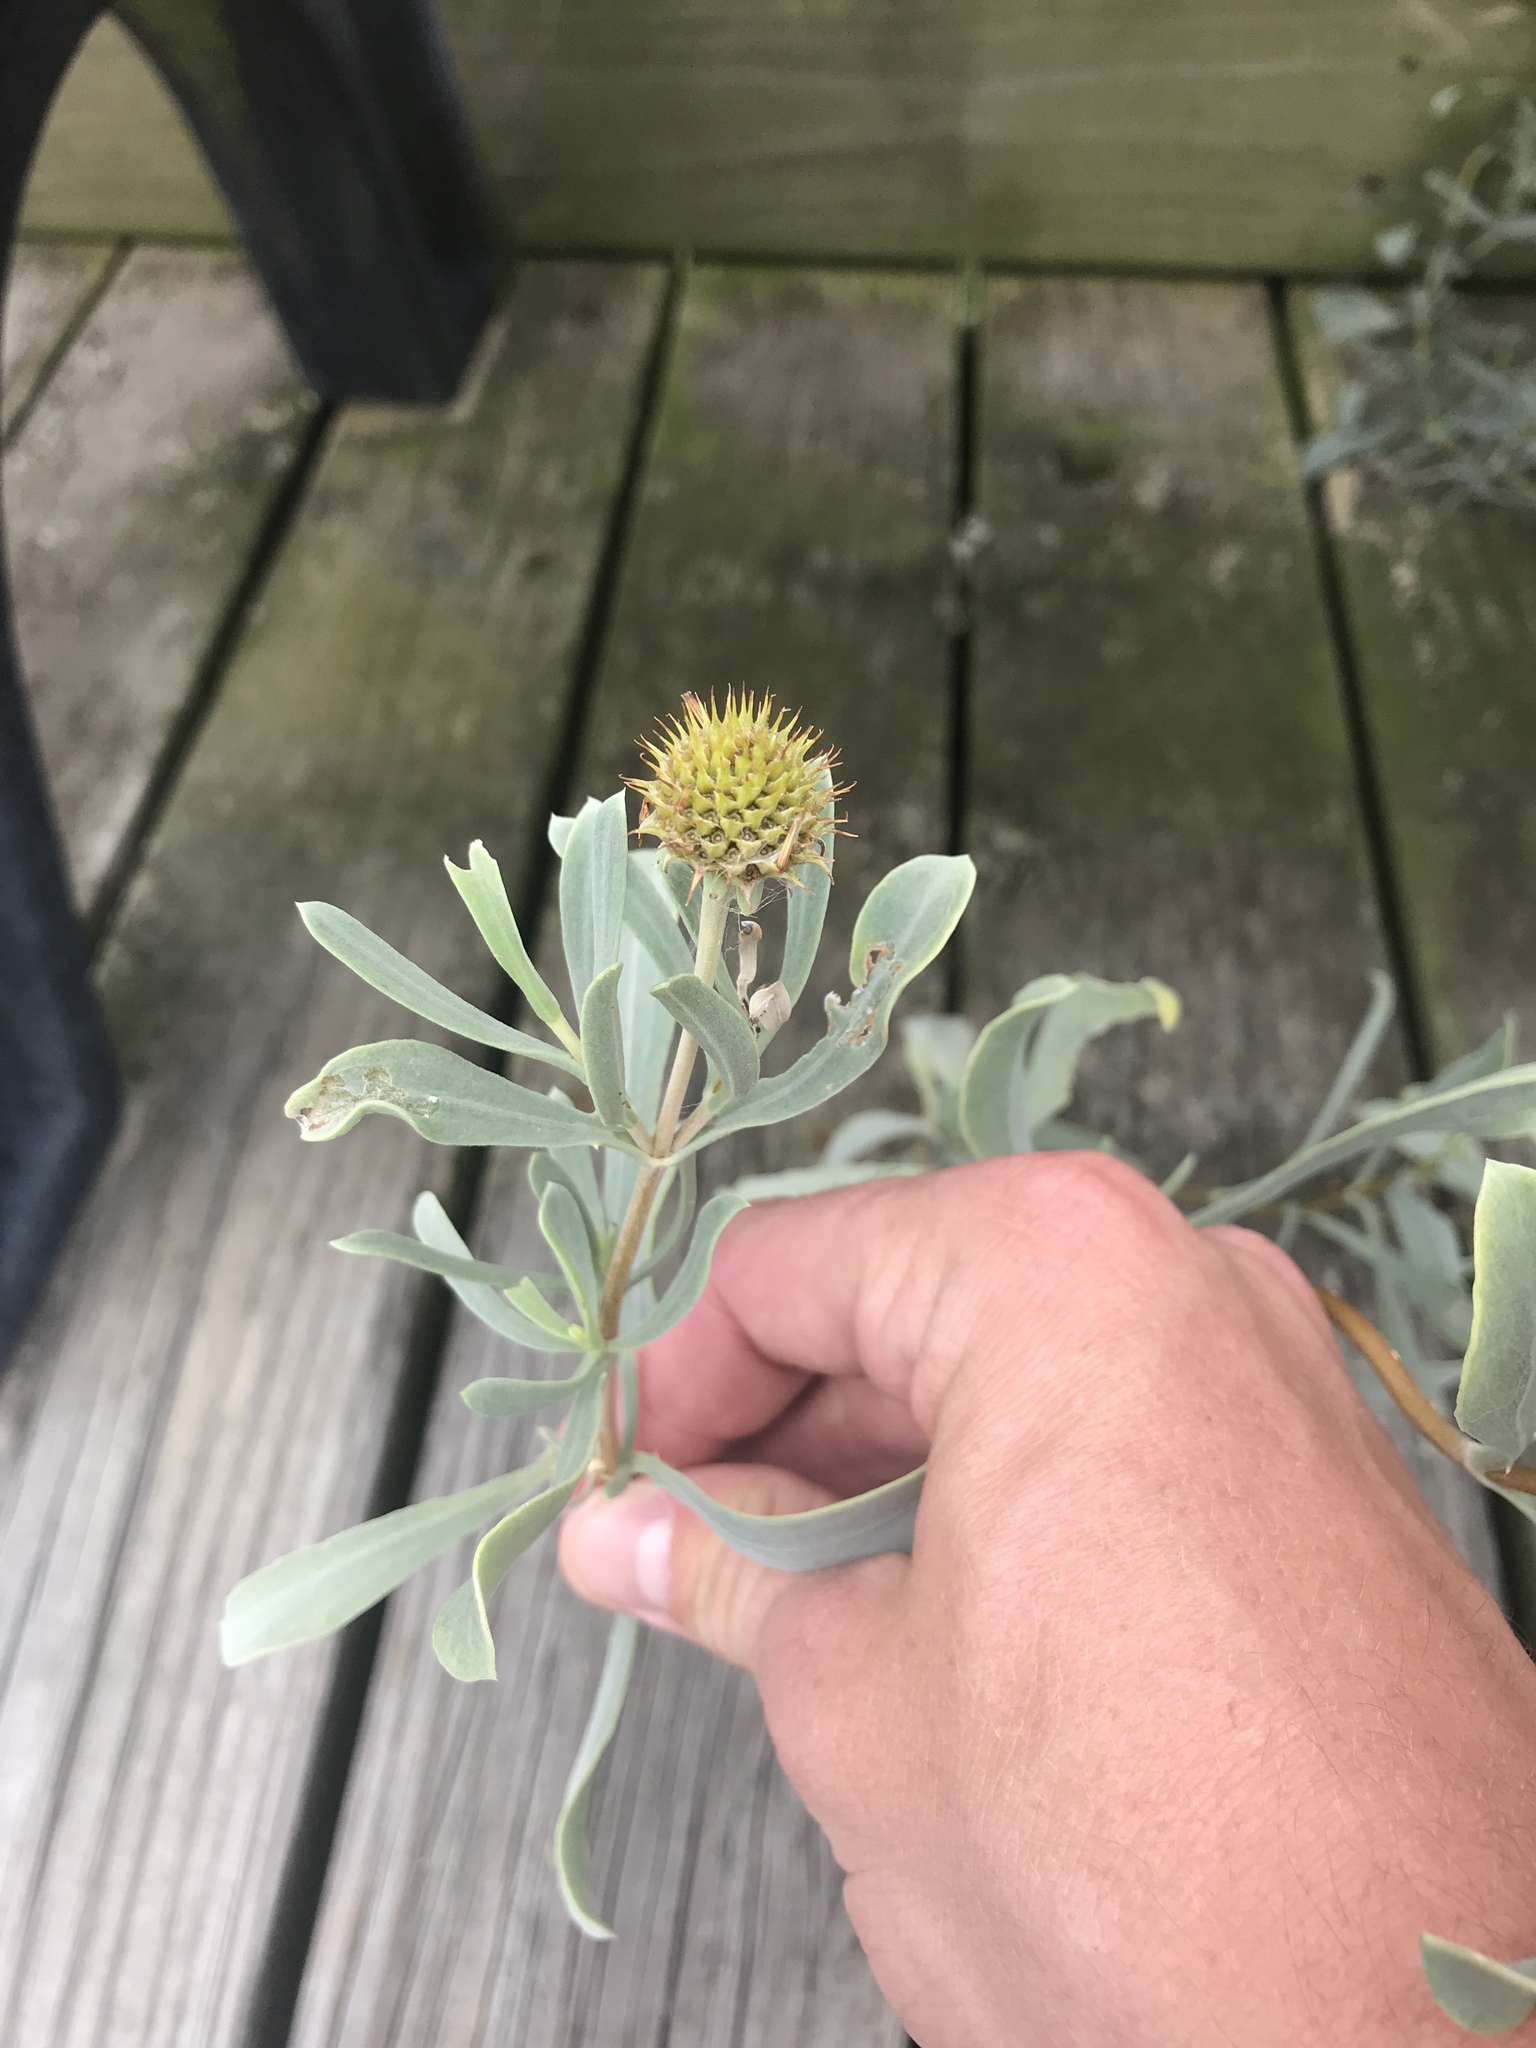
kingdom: Plantae
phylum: Tracheophyta
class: Magnoliopsida
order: Asterales
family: Asteraceae
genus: Borrichia
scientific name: Borrichia frutescens
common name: Sea oxeye
